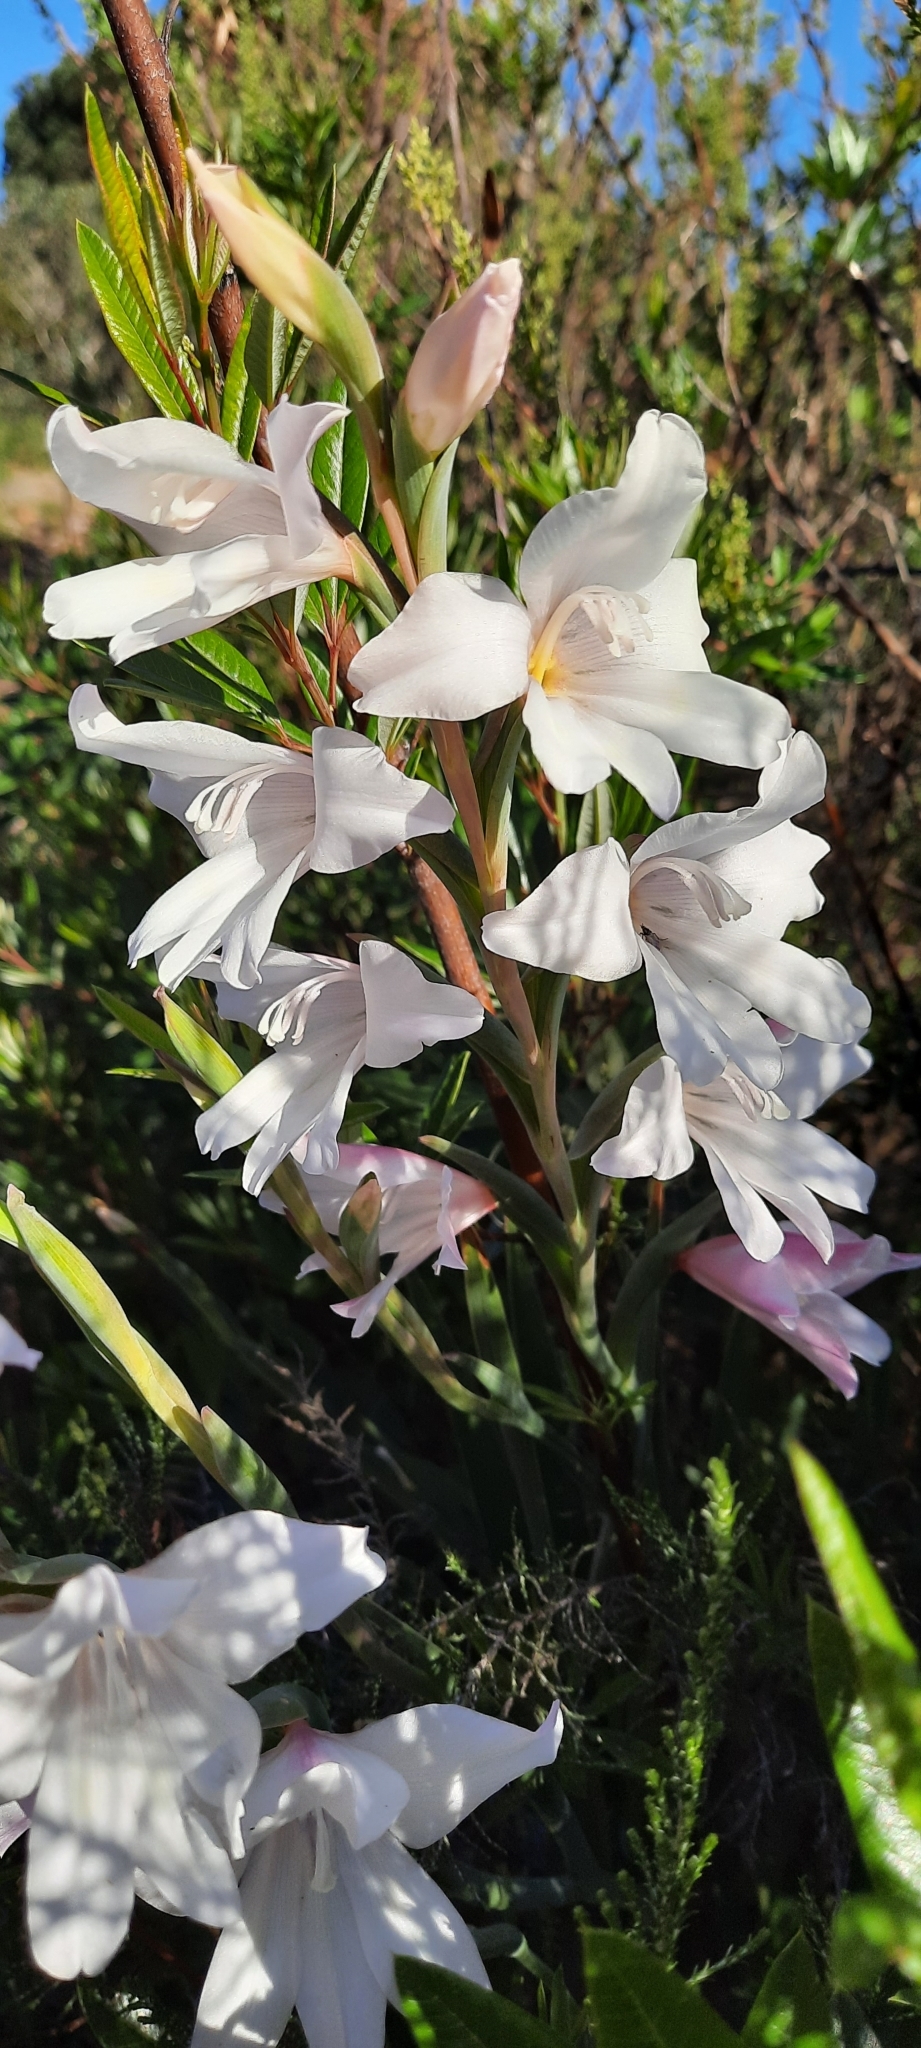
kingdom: Plantae
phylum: Tracheophyta
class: Liliopsida
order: Asparagales
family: Iridaceae
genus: Gladiolus
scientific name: Gladiolus carneus
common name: Painted-lady
